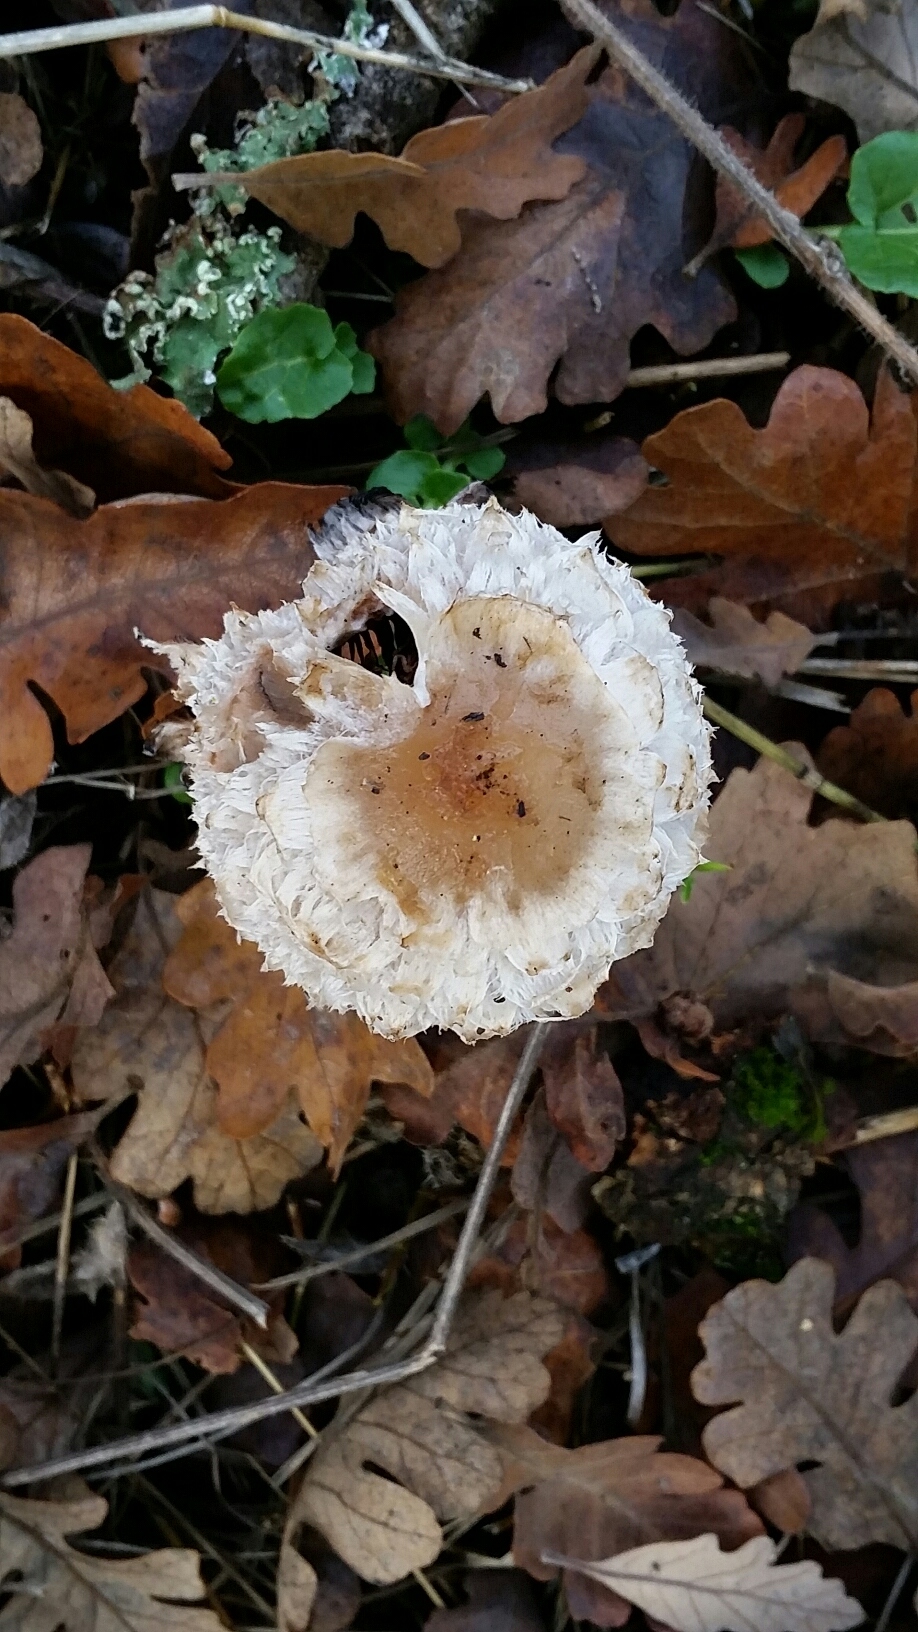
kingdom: Fungi
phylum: Basidiomycota
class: Agaricomycetes
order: Agaricales
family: Agaricaceae
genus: Coprinus
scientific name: Coprinus comatus
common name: Lawyer's wig
